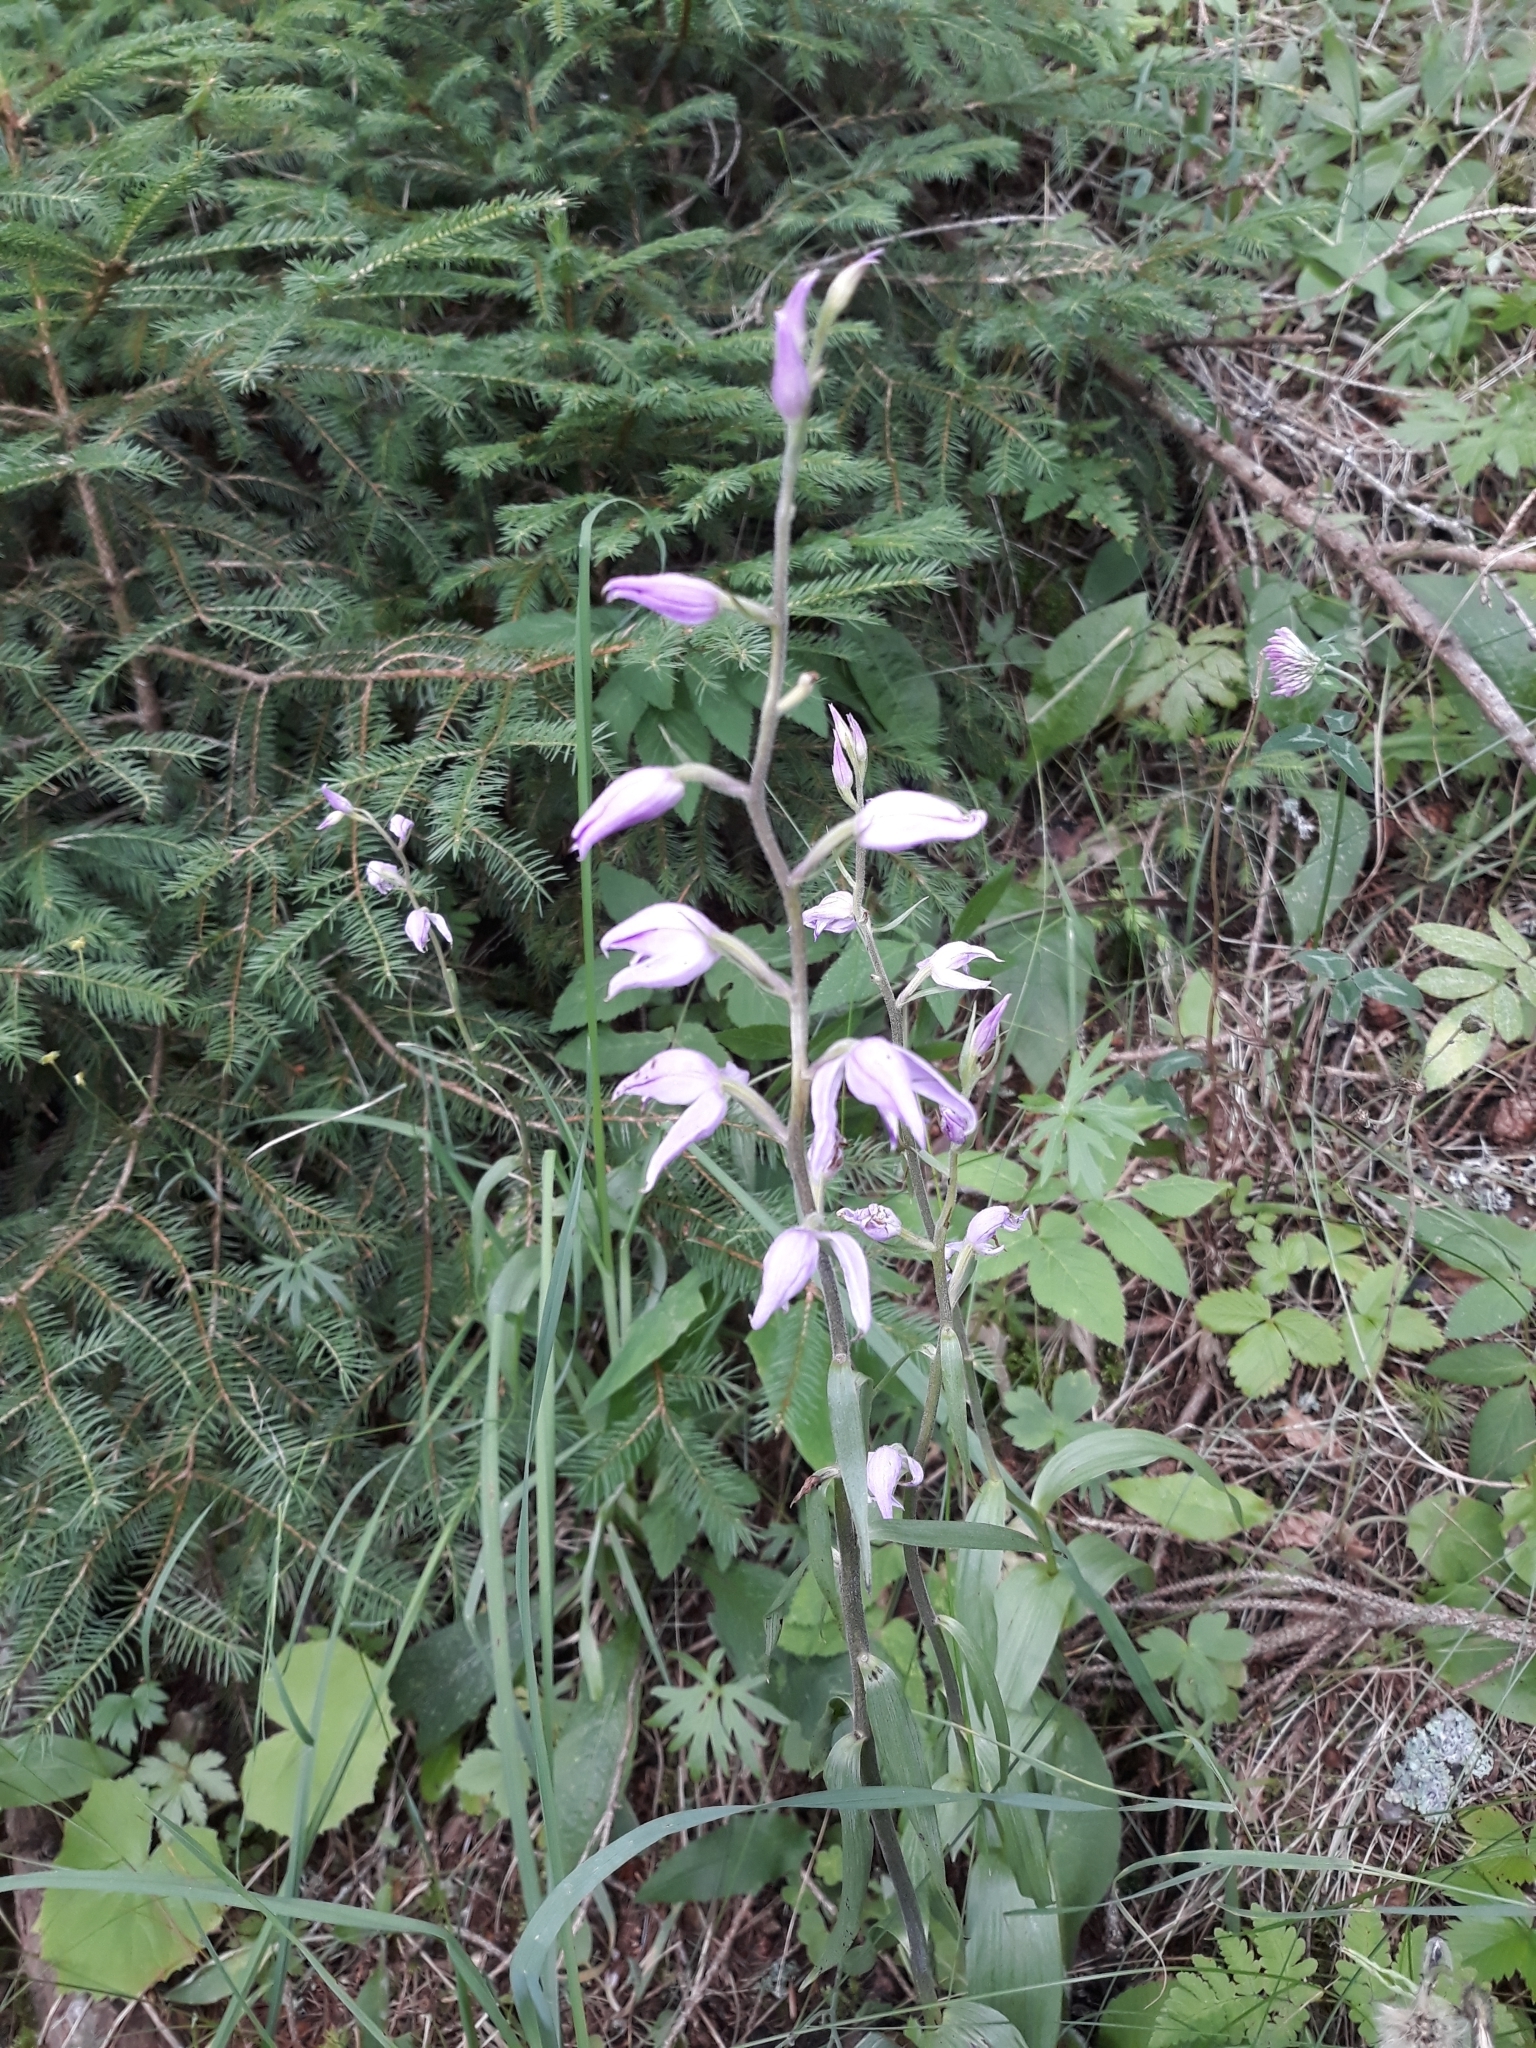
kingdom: Plantae
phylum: Tracheophyta
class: Liliopsida
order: Asparagales
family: Orchidaceae
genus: Cephalanthera
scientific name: Cephalanthera rubra
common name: Red helleborine
